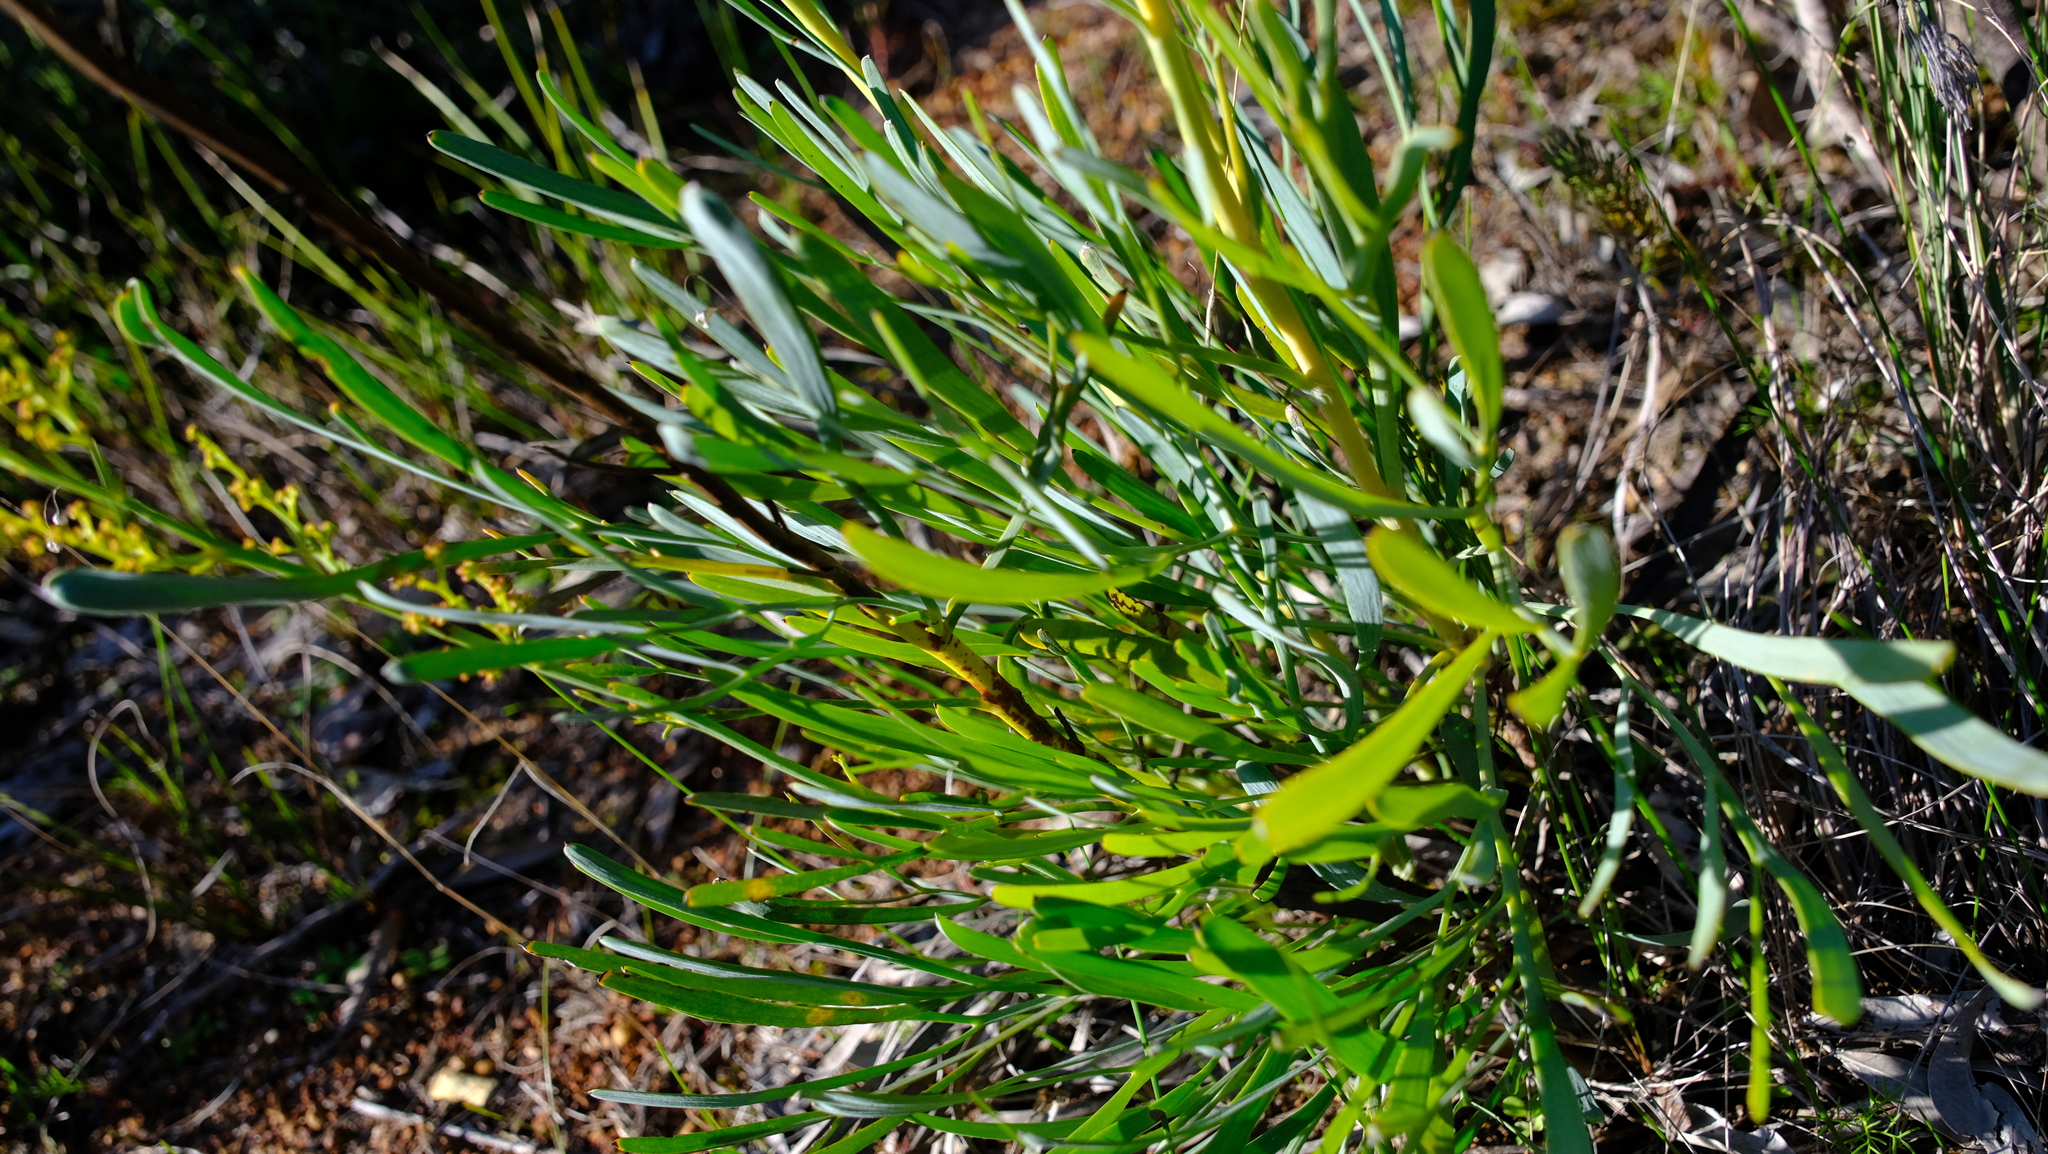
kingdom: Plantae
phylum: Tracheophyta
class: Magnoliopsida
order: Proteales
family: Proteaceae
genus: Stirlingia
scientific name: Stirlingia latifolia
